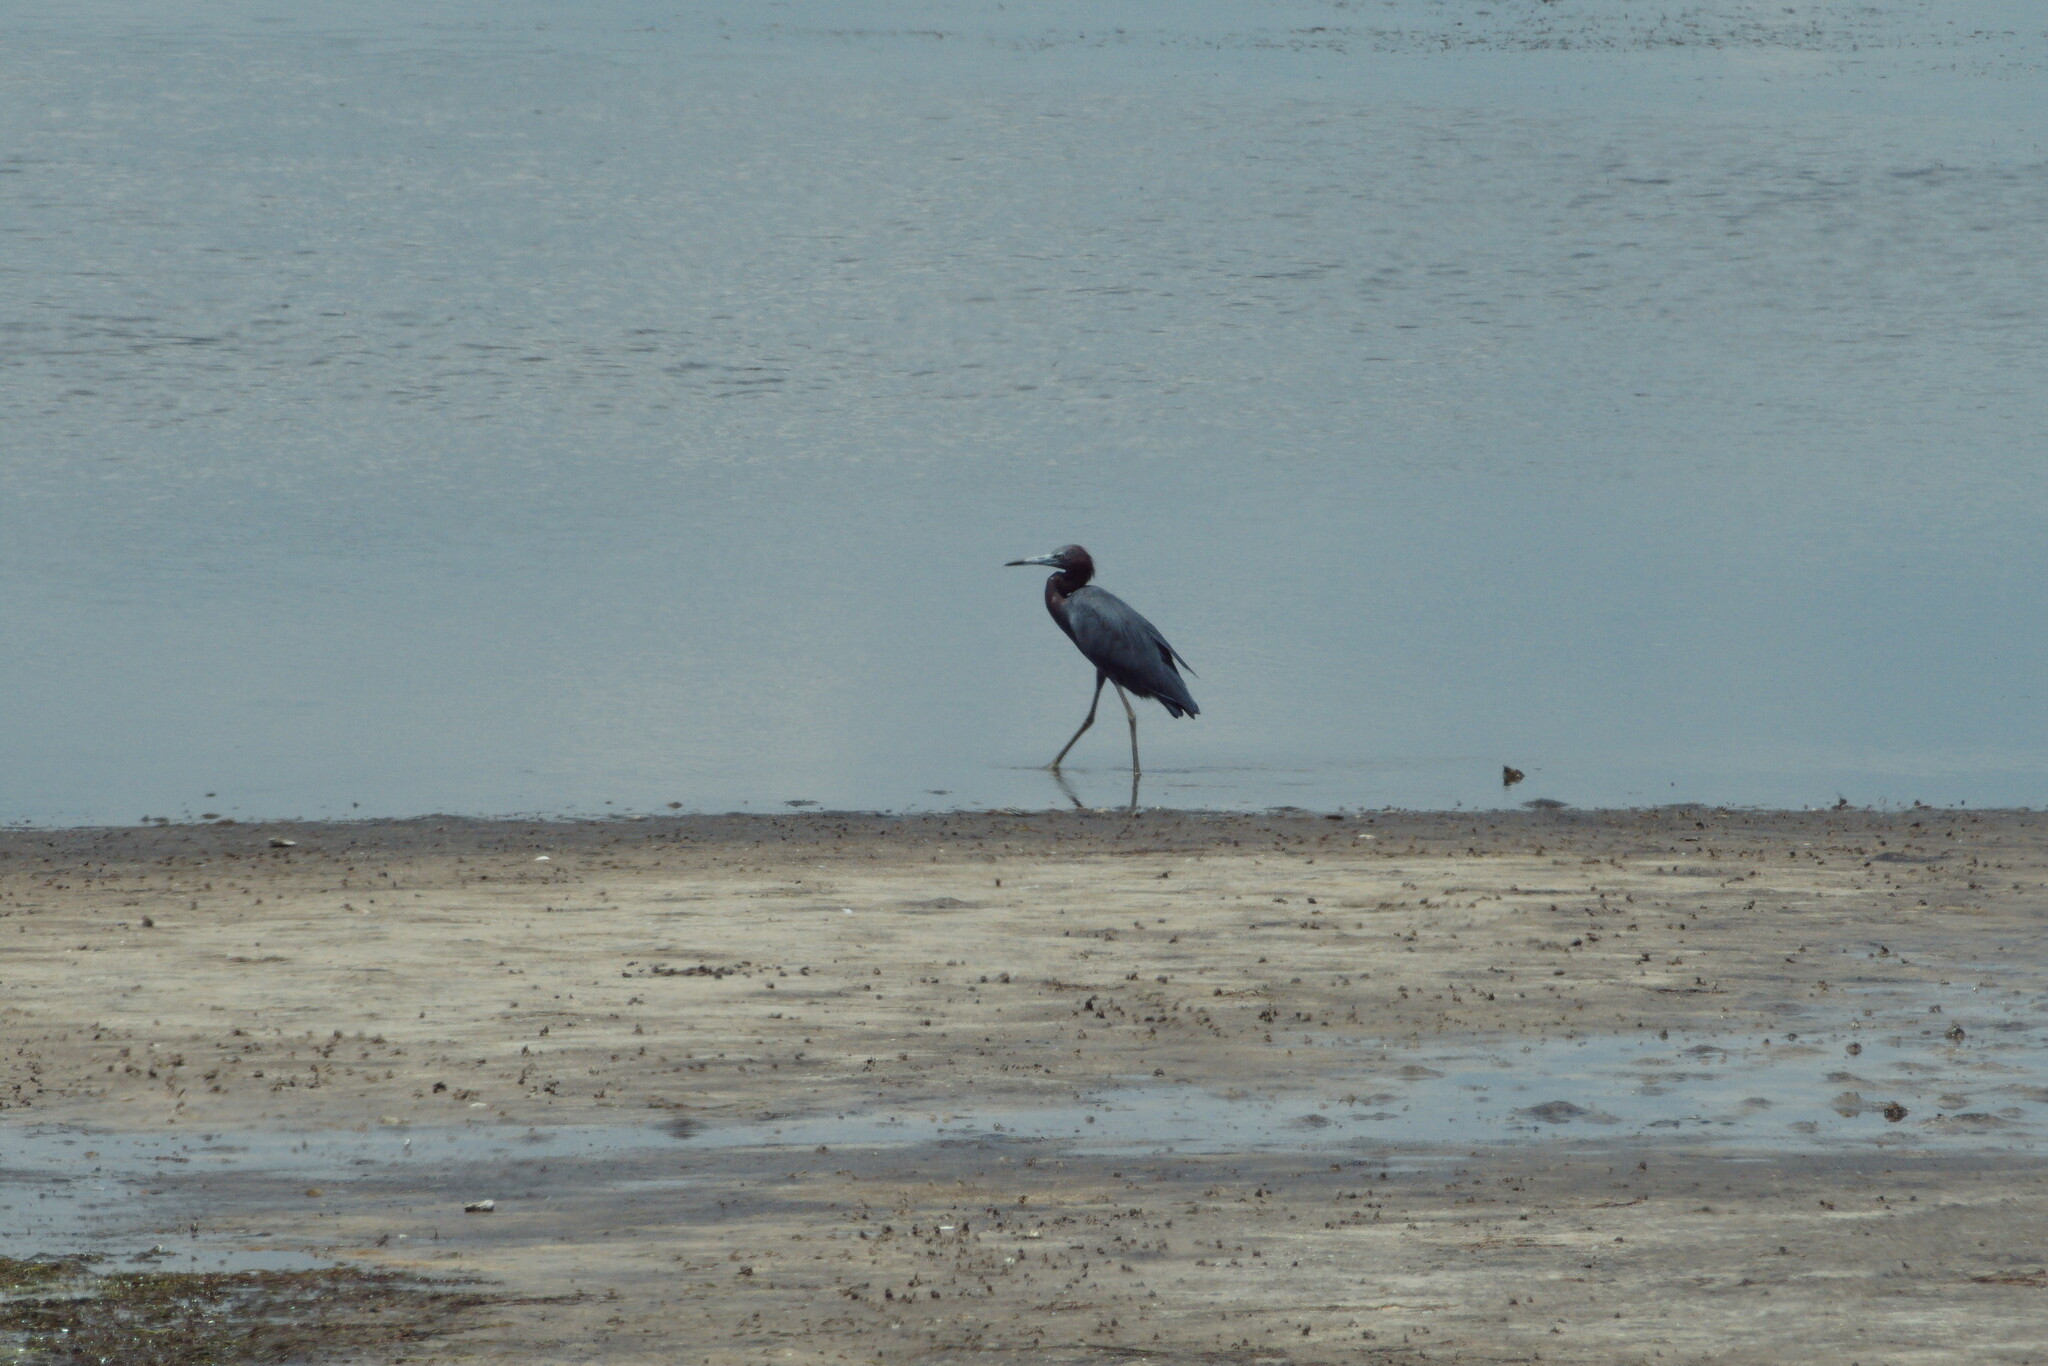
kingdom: Animalia
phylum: Chordata
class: Aves
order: Pelecaniformes
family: Ardeidae
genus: Egretta
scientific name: Egretta caerulea
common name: Little blue heron
